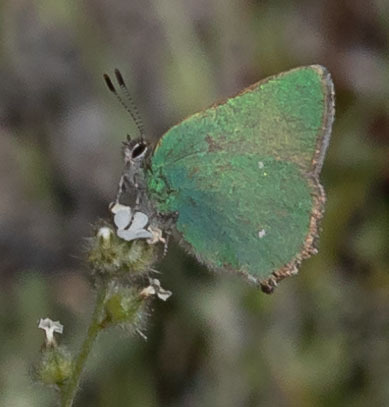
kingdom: Animalia
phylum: Arthropoda
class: Insecta
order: Lepidoptera
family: Lycaenidae
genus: Callophrys
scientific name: Callophrys dumetorum
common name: Bramble hairstreak
